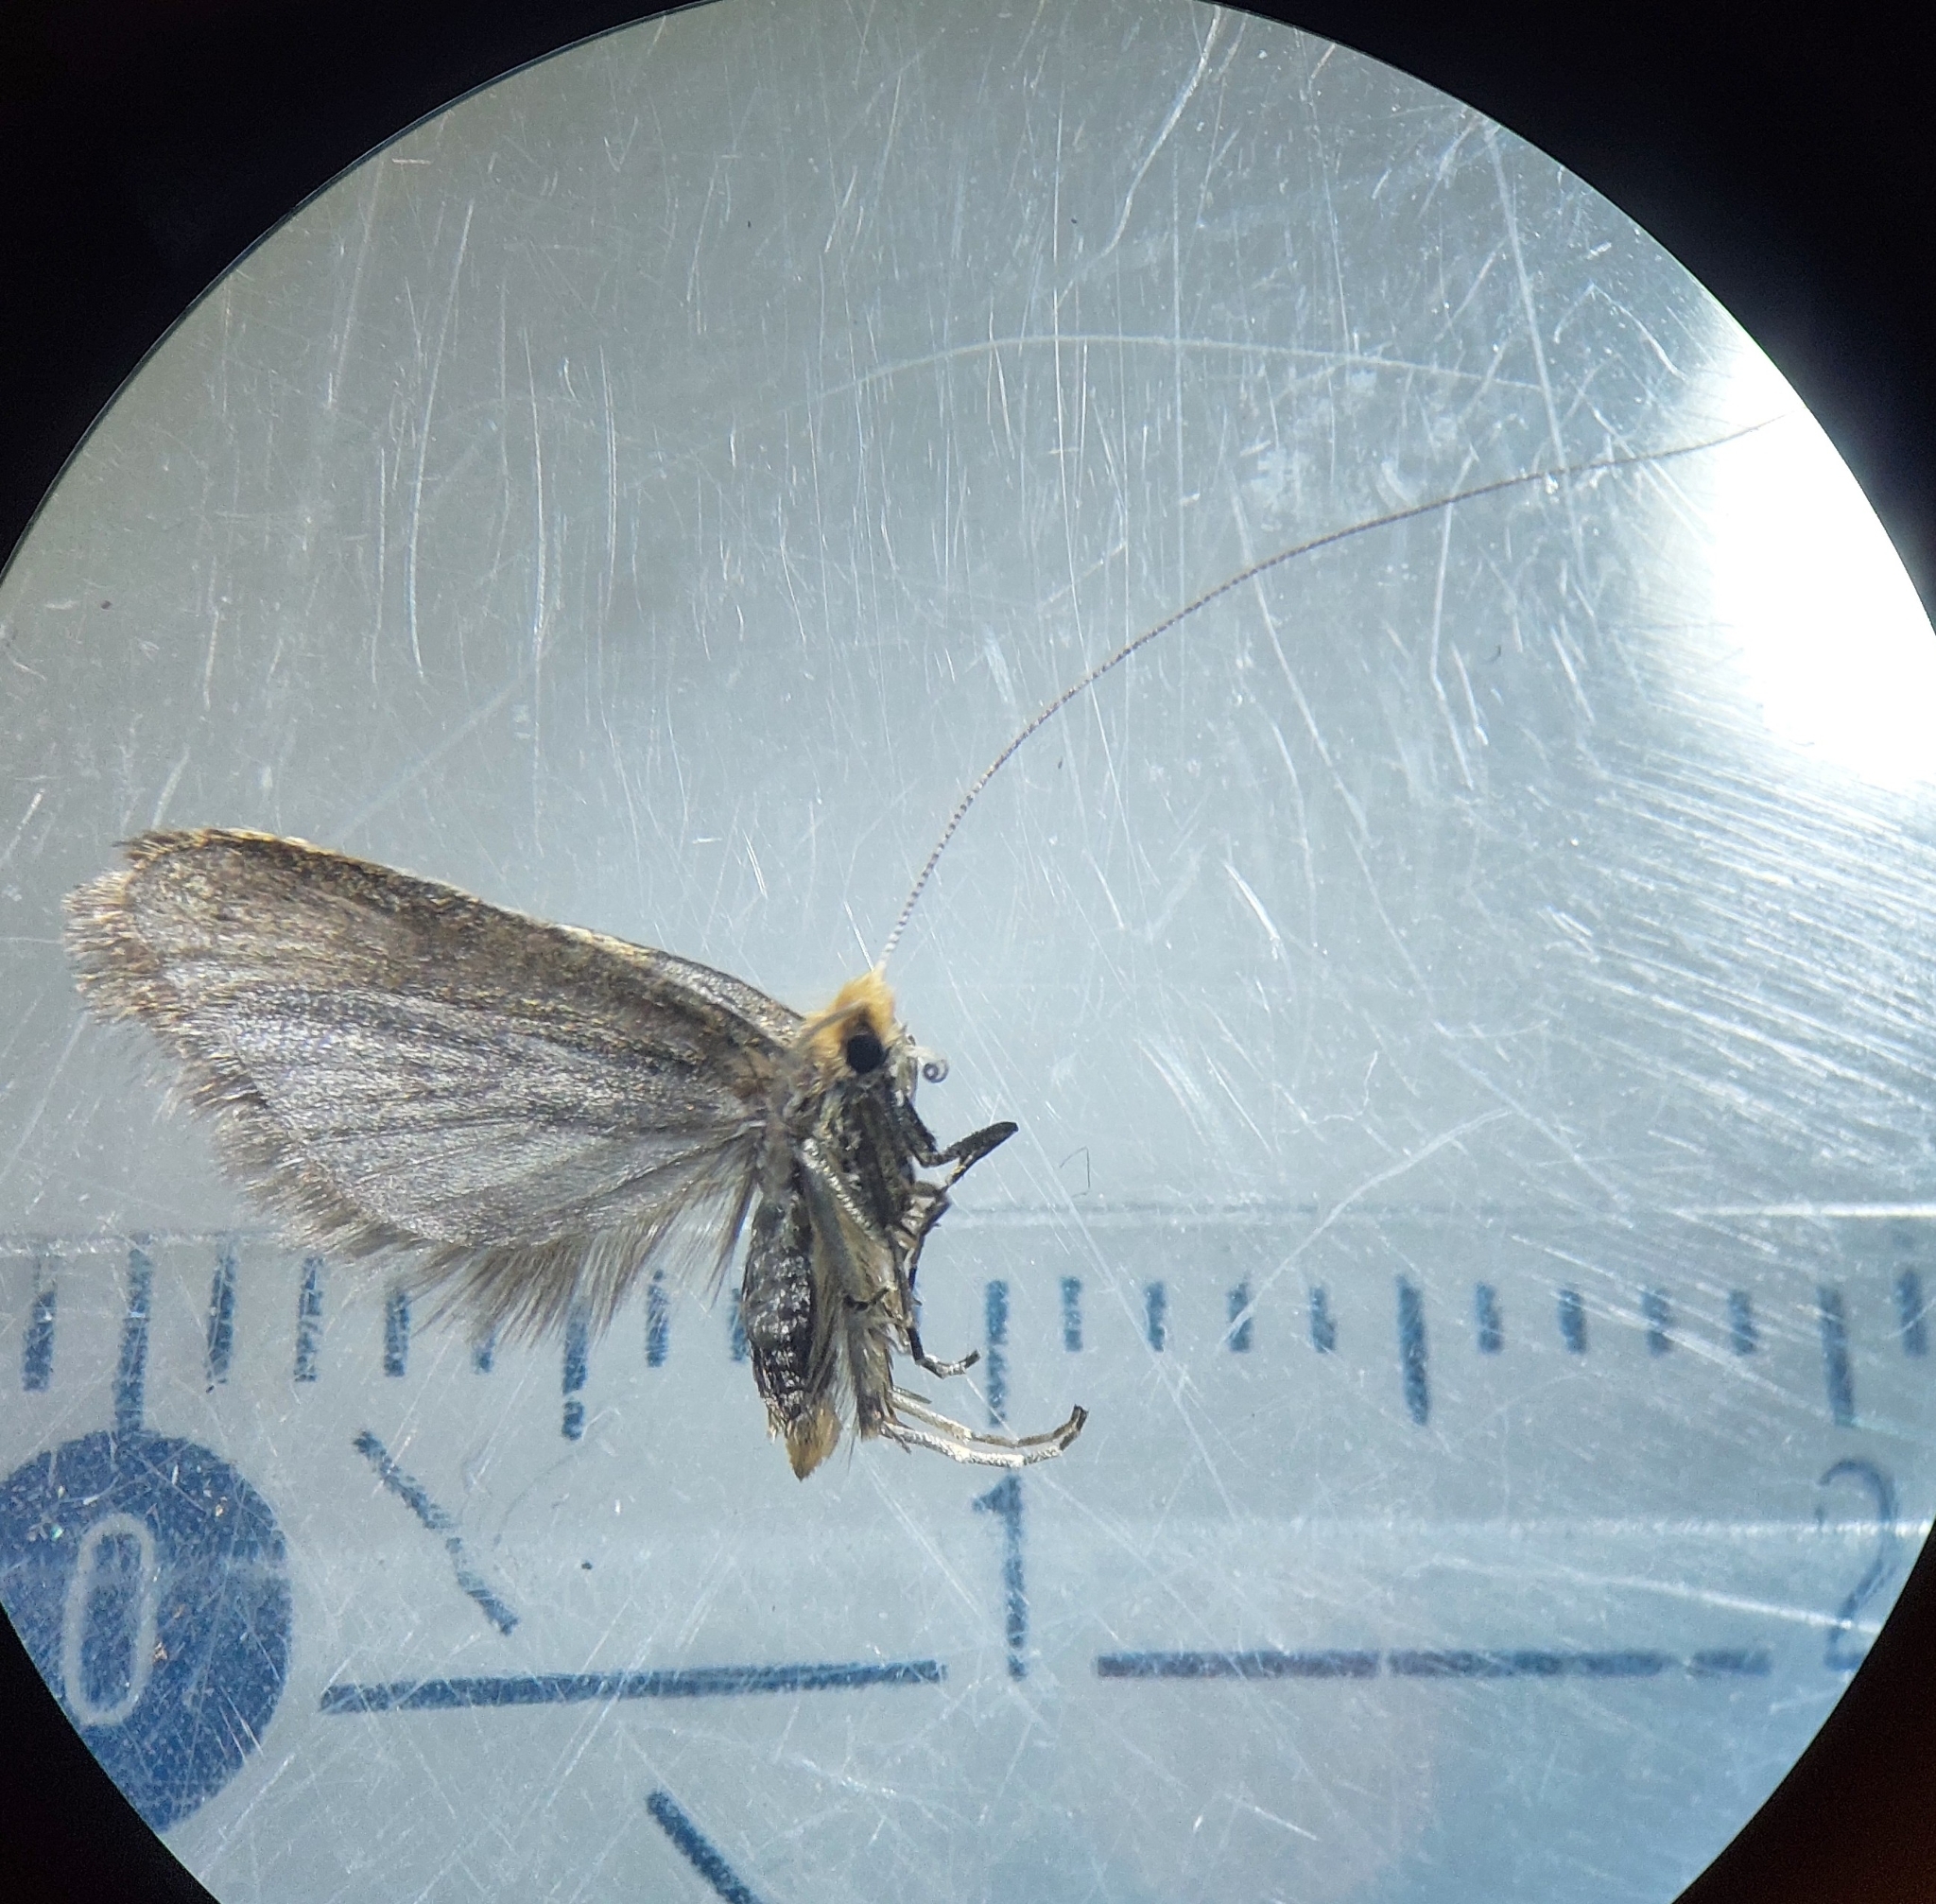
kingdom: Animalia
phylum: Arthropoda
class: Insecta
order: Lepidoptera
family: Adelidae
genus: Nematopogon
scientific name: Nematopogon adansoniella
